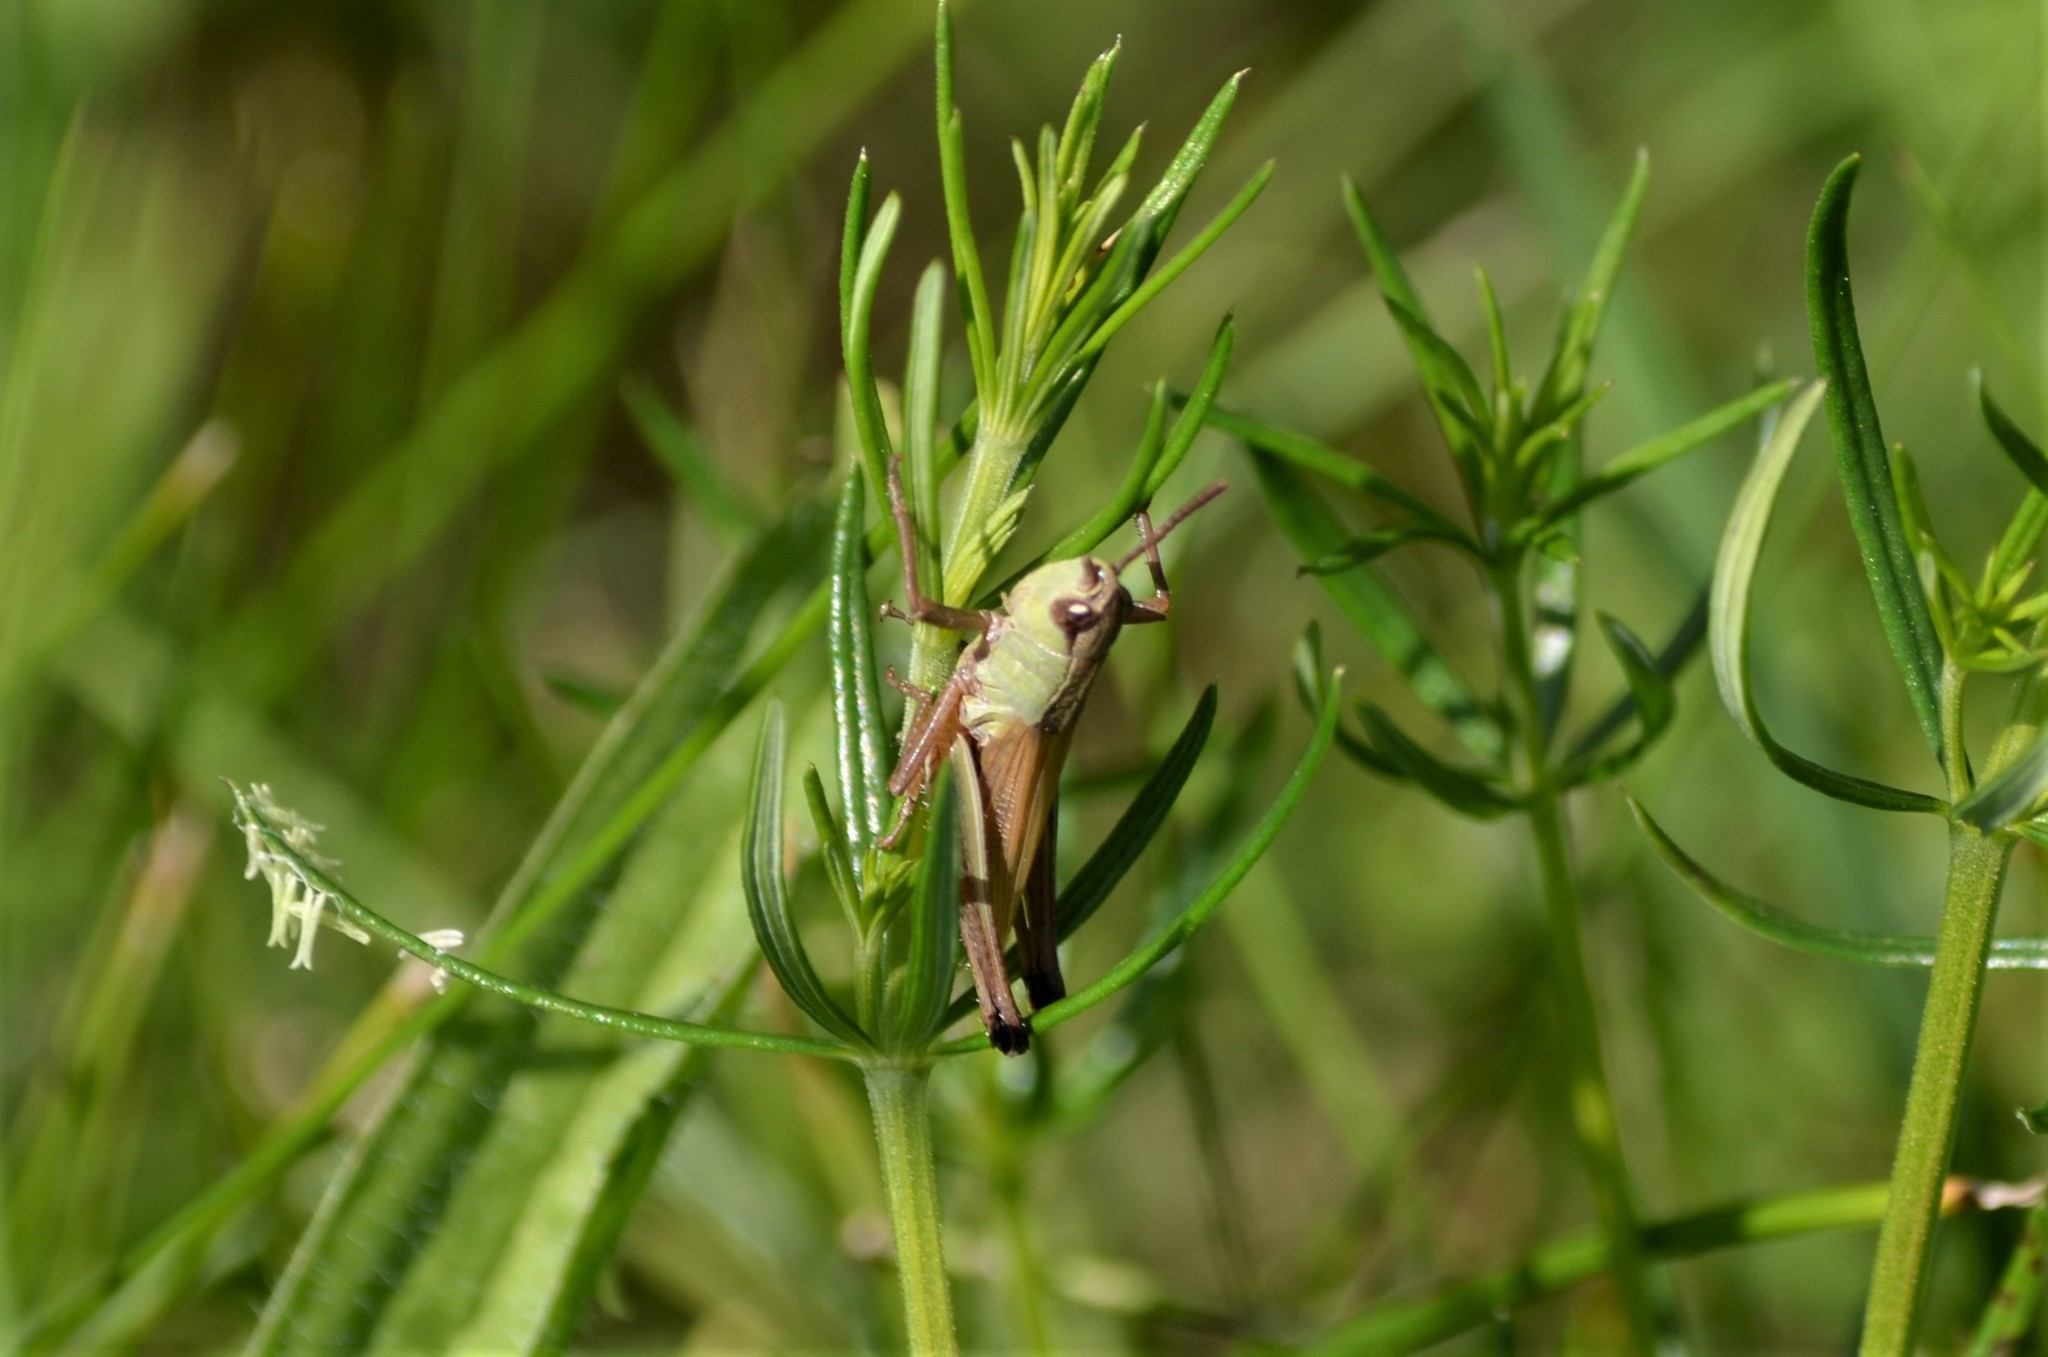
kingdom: Animalia
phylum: Arthropoda
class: Insecta
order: Orthoptera
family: Acrididae
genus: Pseudochorthippus
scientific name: Pseudochorthippus parallelus
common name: Meadow grasshopper
